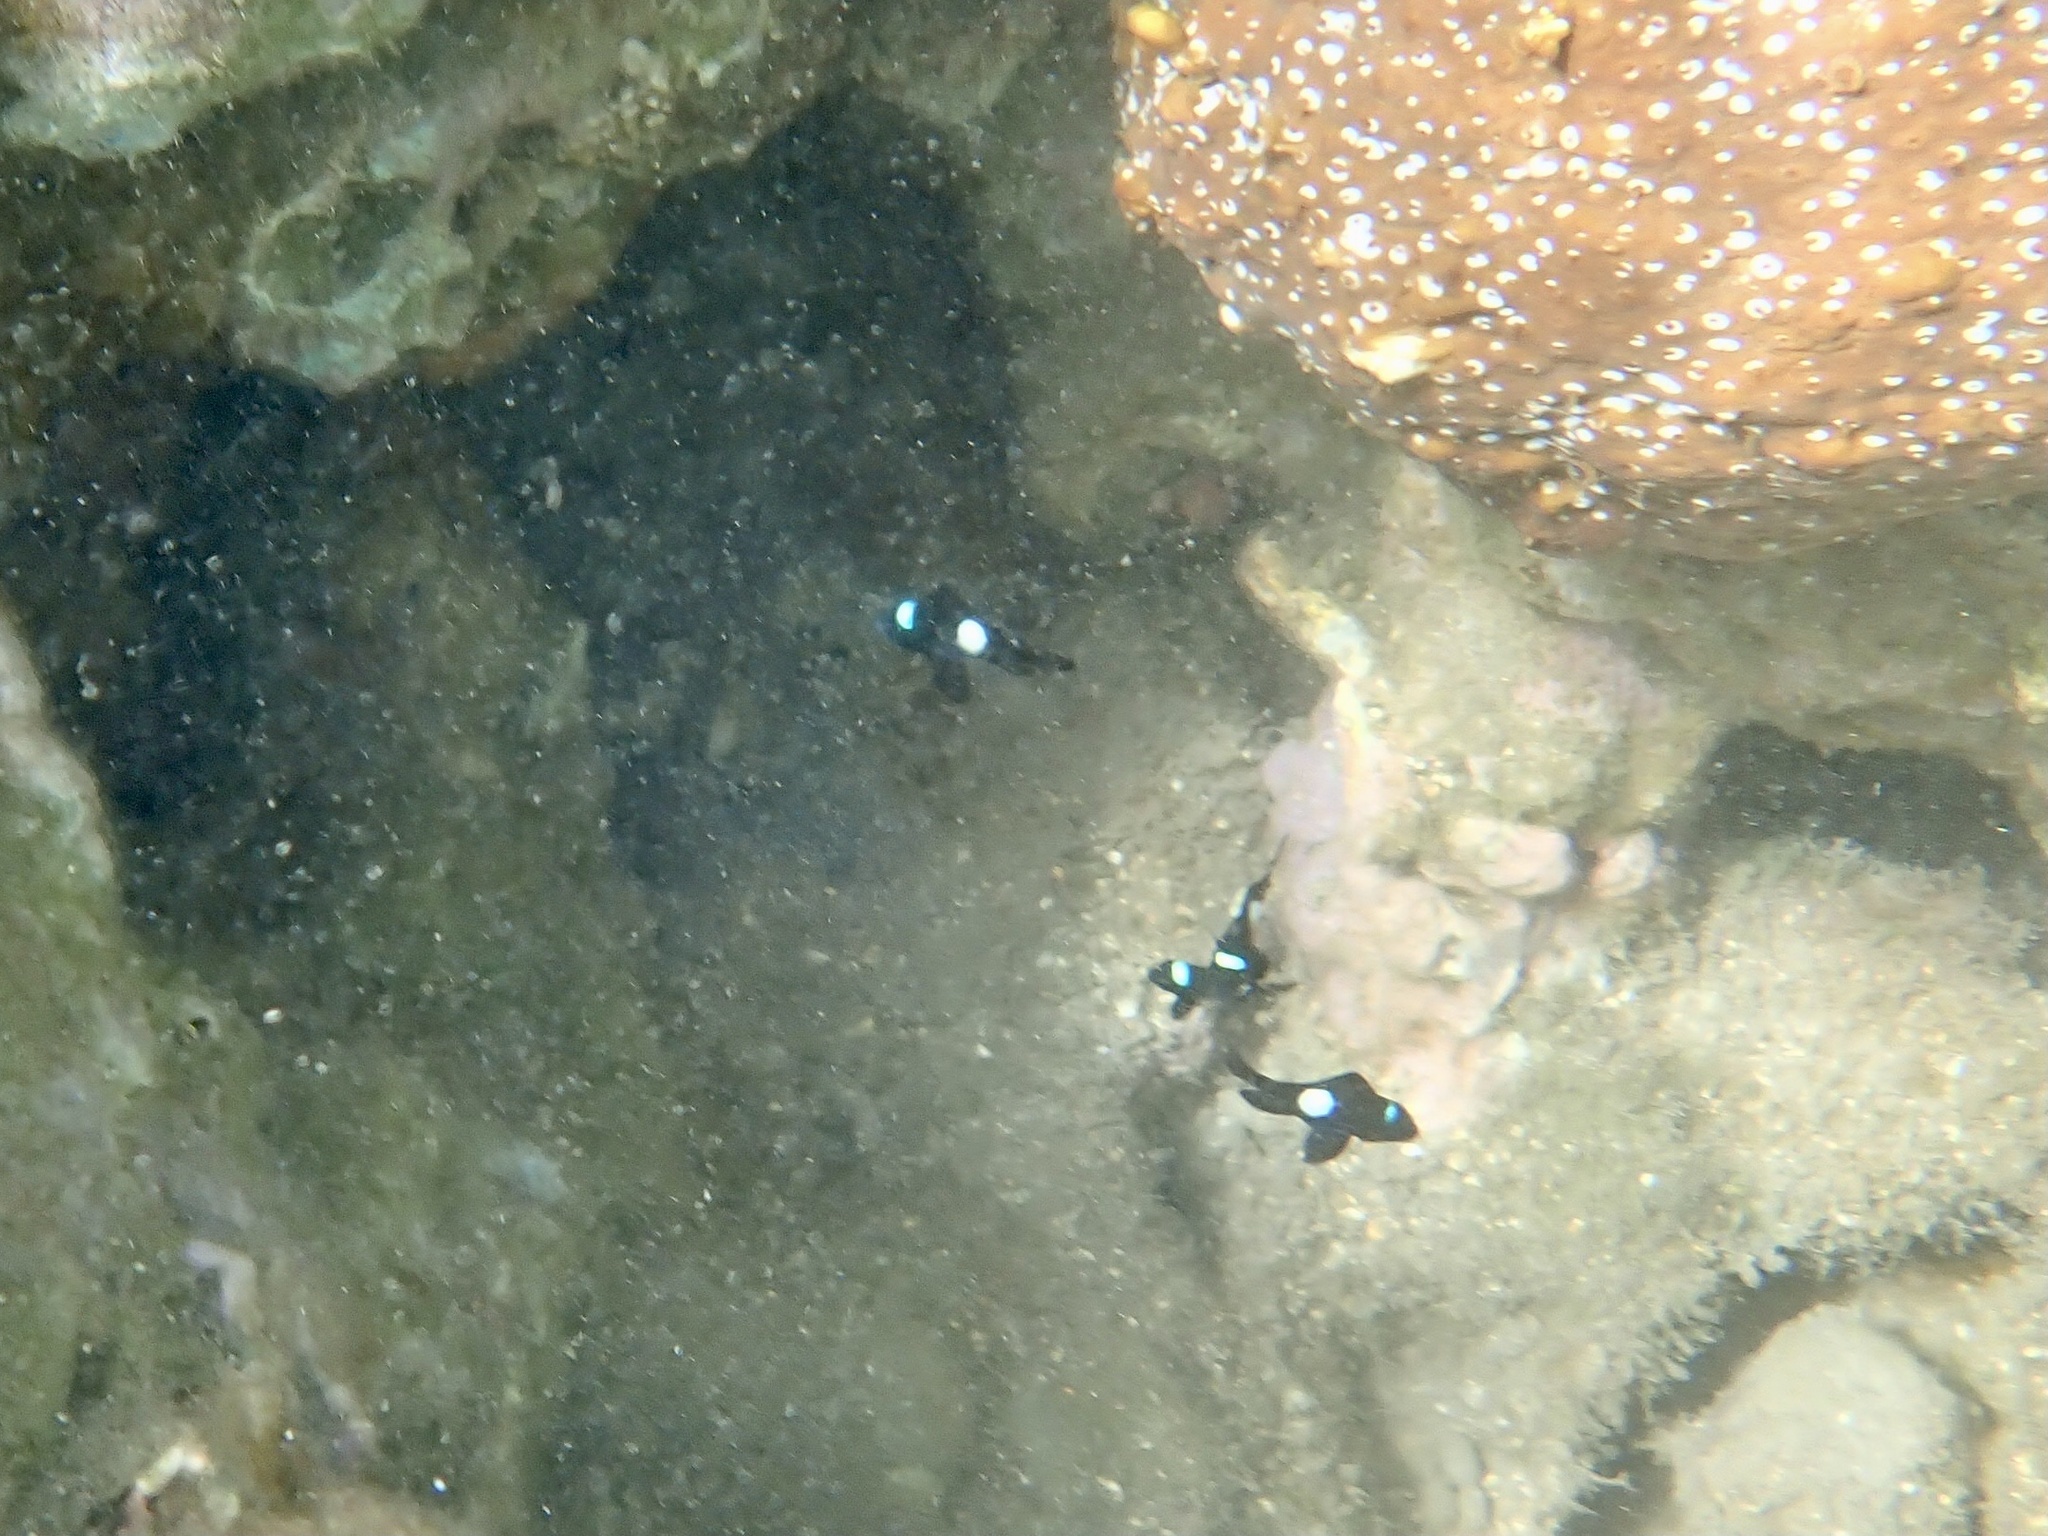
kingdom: Animalia
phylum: Chordata
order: Perciformes
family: Pomacentridae
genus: Dascyllus
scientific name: Dascyllus albisella
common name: Hawaiian dascyllus
